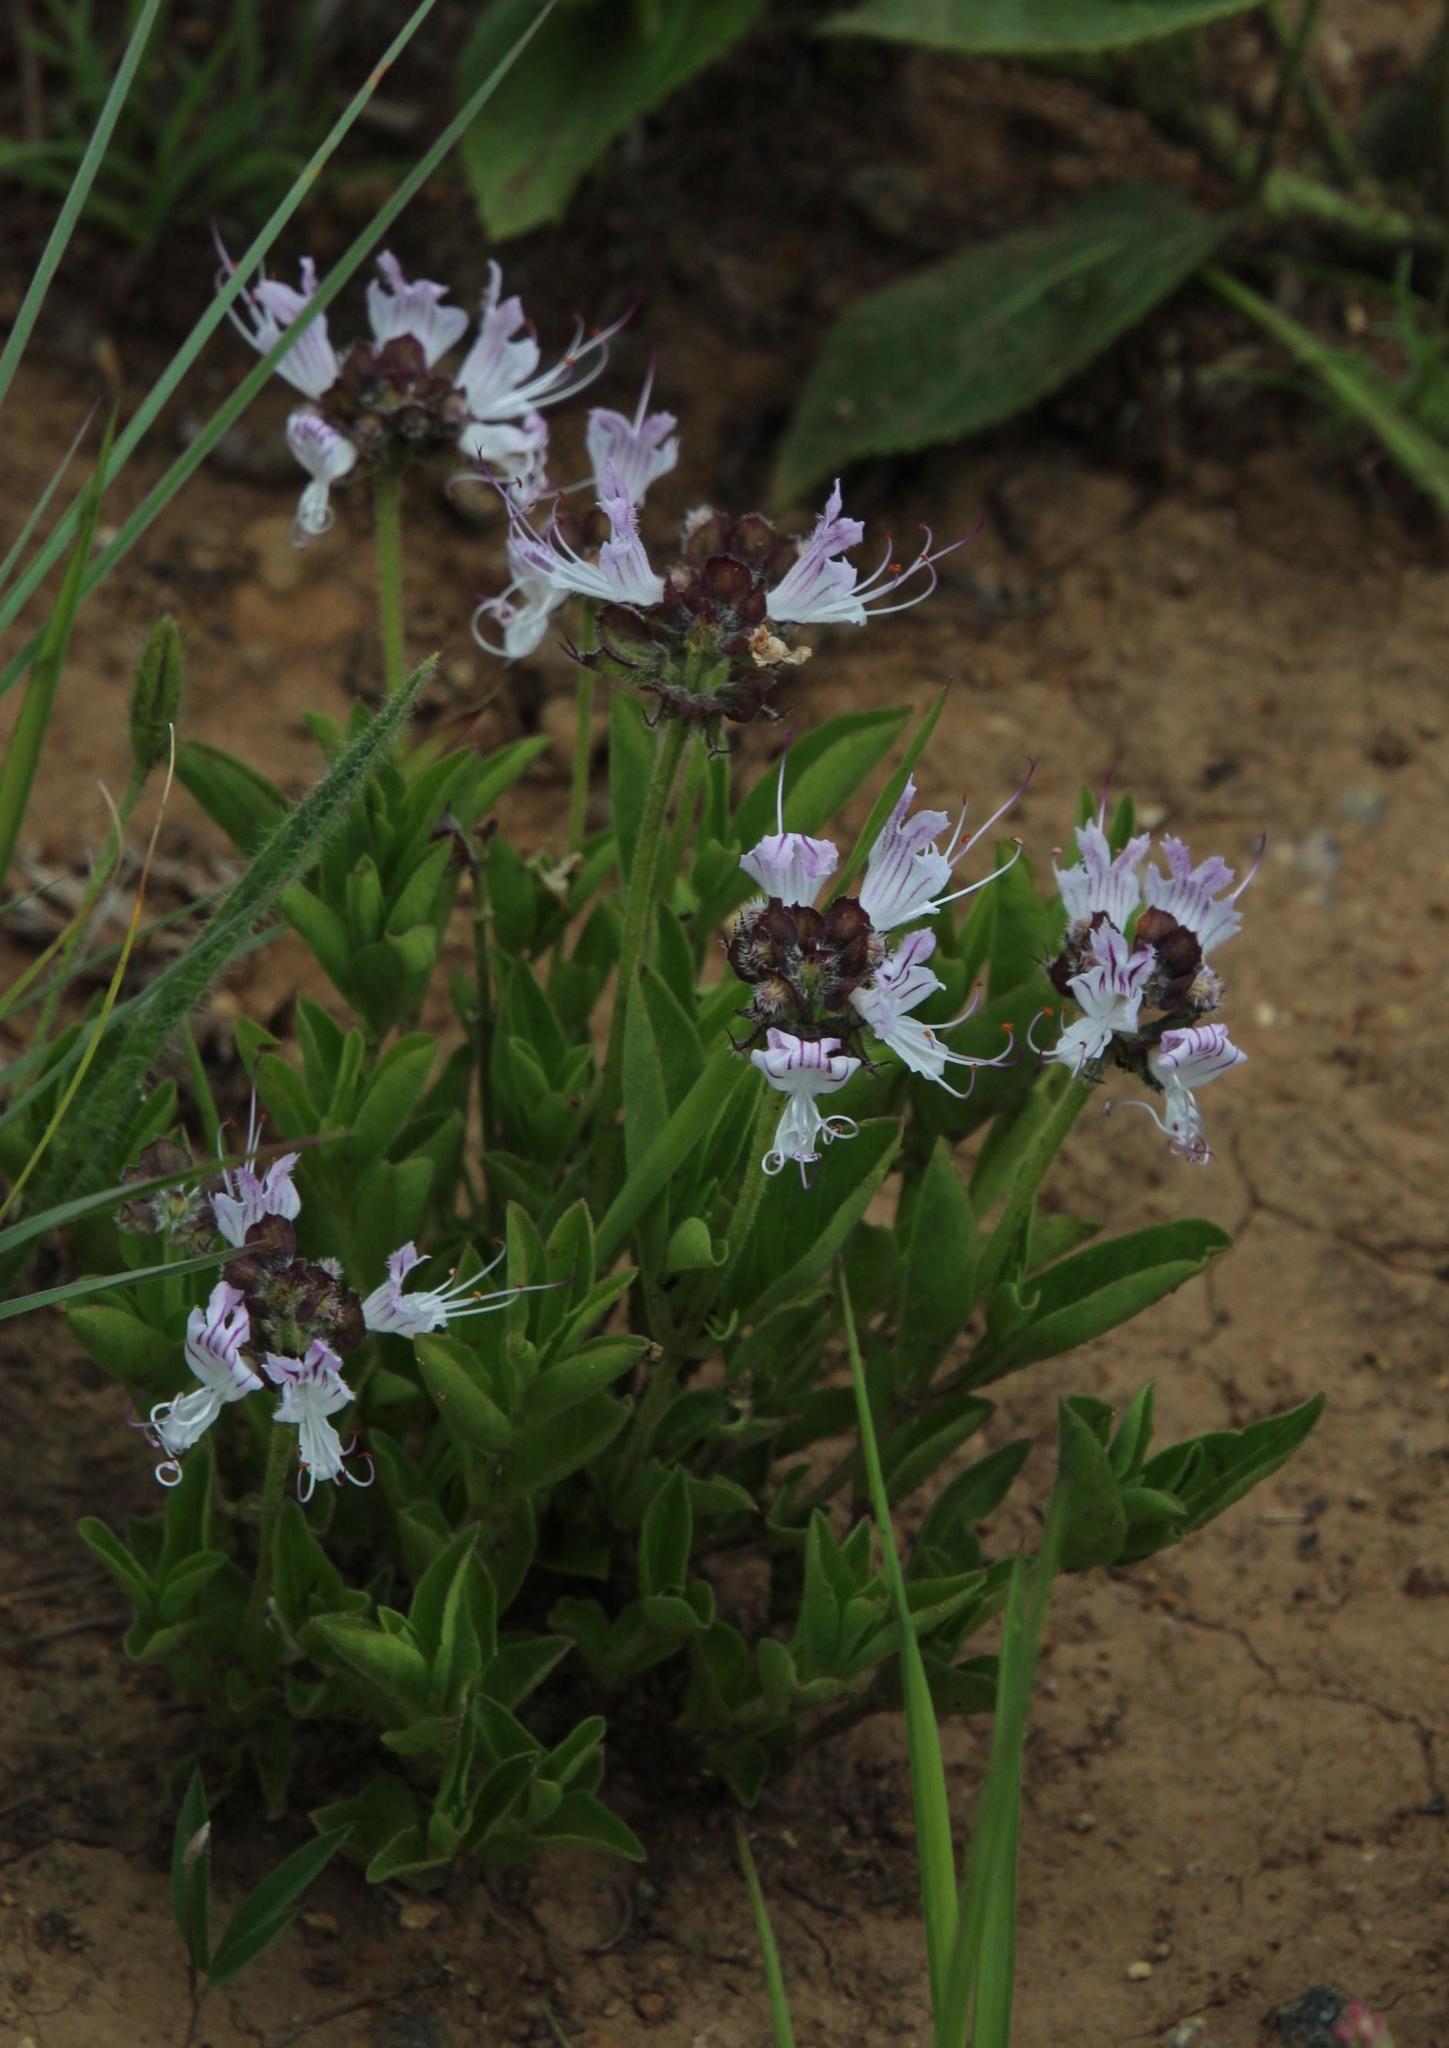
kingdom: Plantae
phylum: Tracheophyta
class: Magnoliopsida
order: Lamiales
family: Lamiaceae
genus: Ocimum
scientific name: Ocimum obovatum
